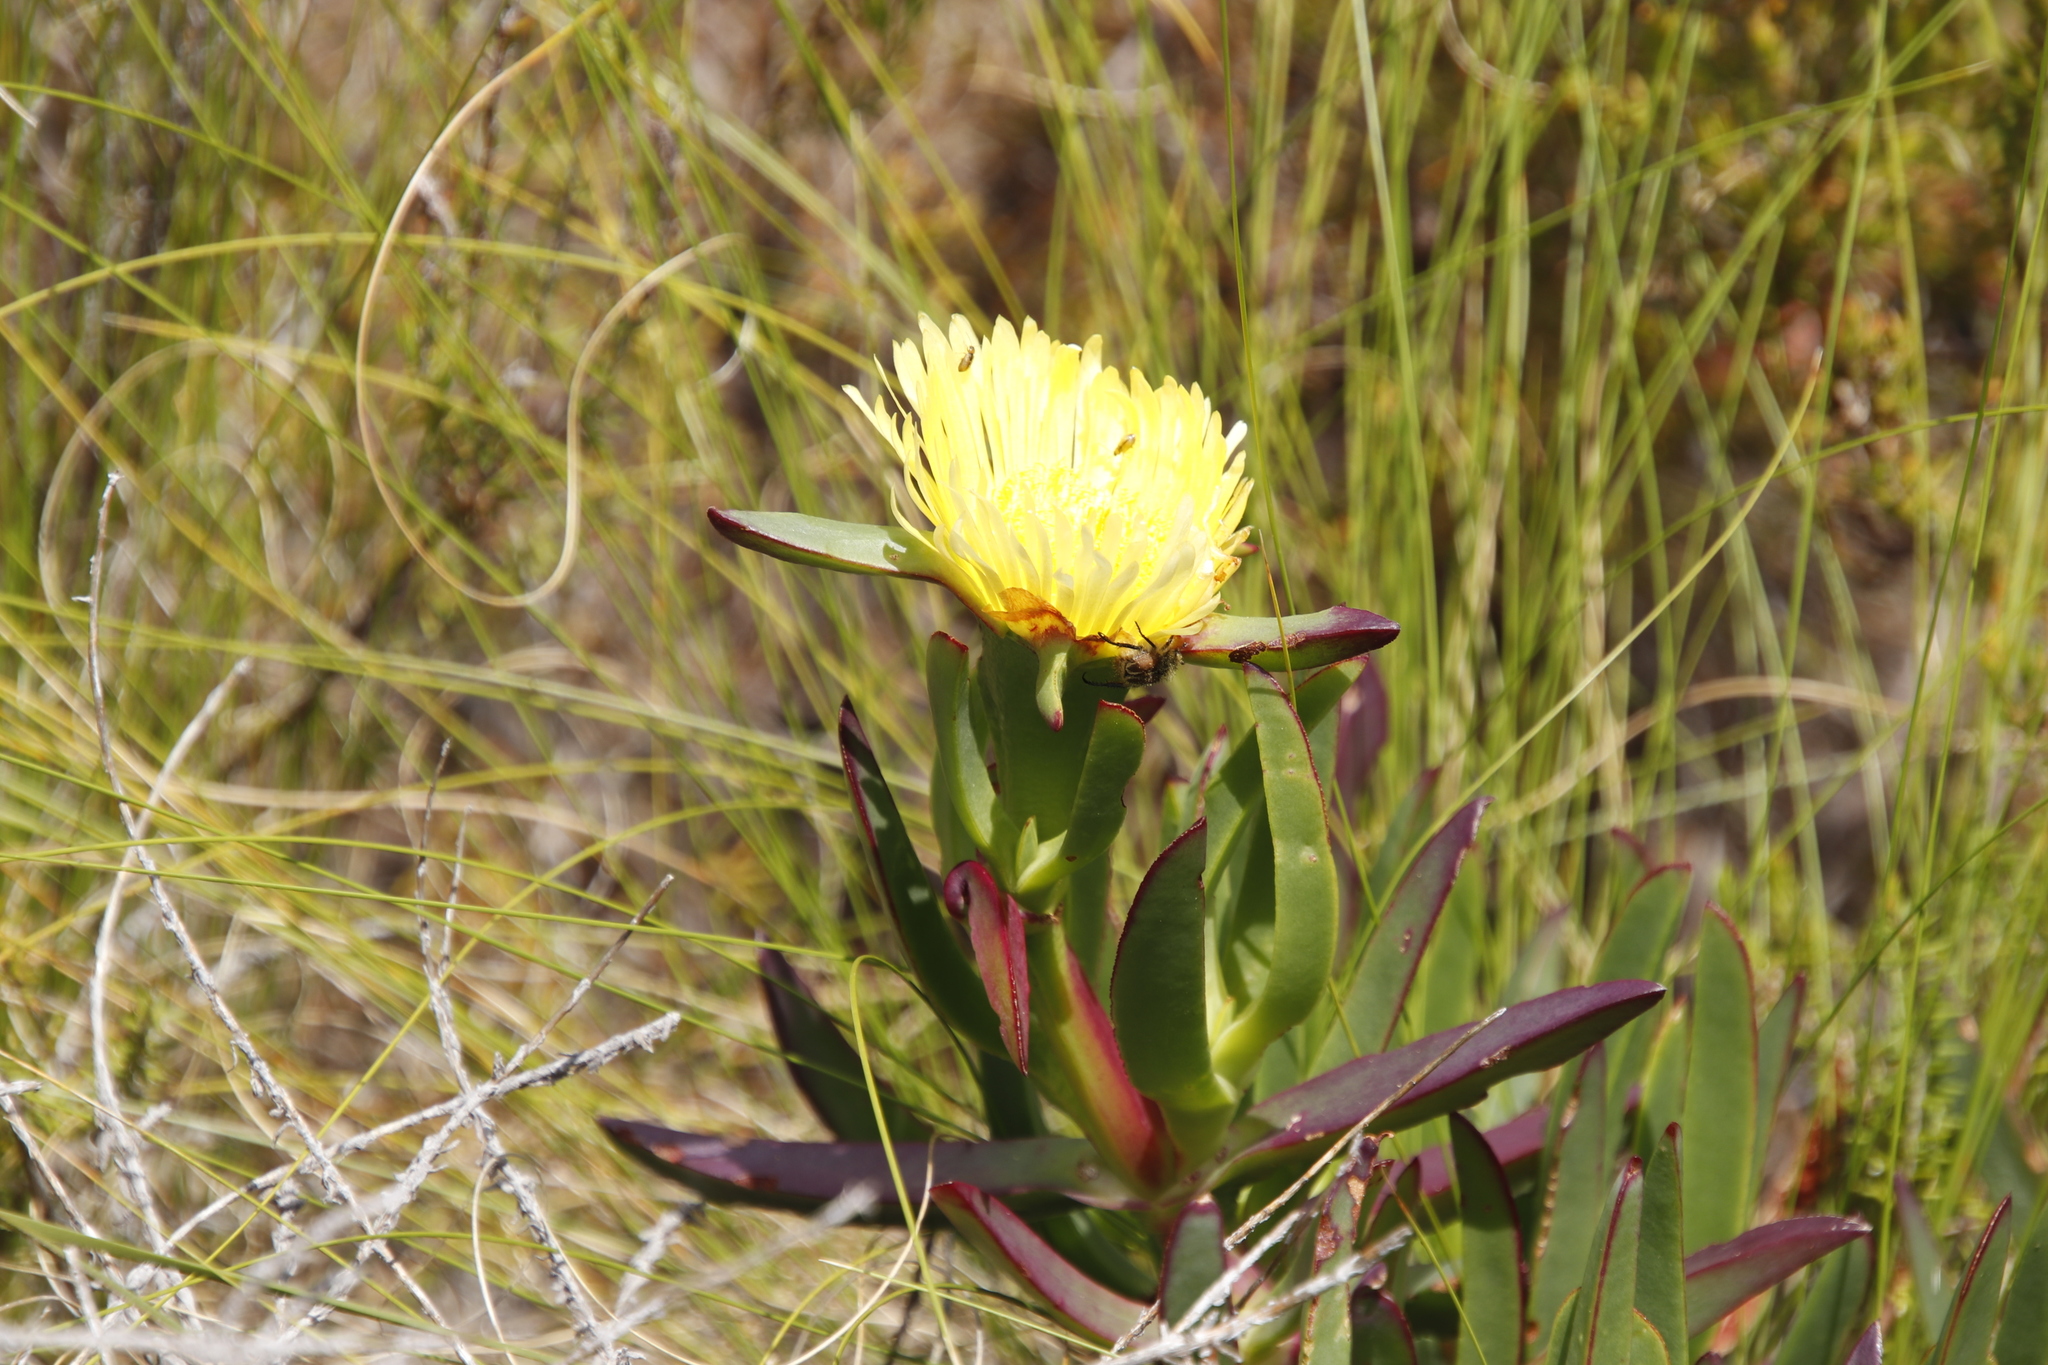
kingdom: Plantae
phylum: Tracheophyta
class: Magnoliopsida
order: Caryophyllales
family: Aizoaceae
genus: Carpobrotus
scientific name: Carpobrotus edulis
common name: Hottentot-fig
